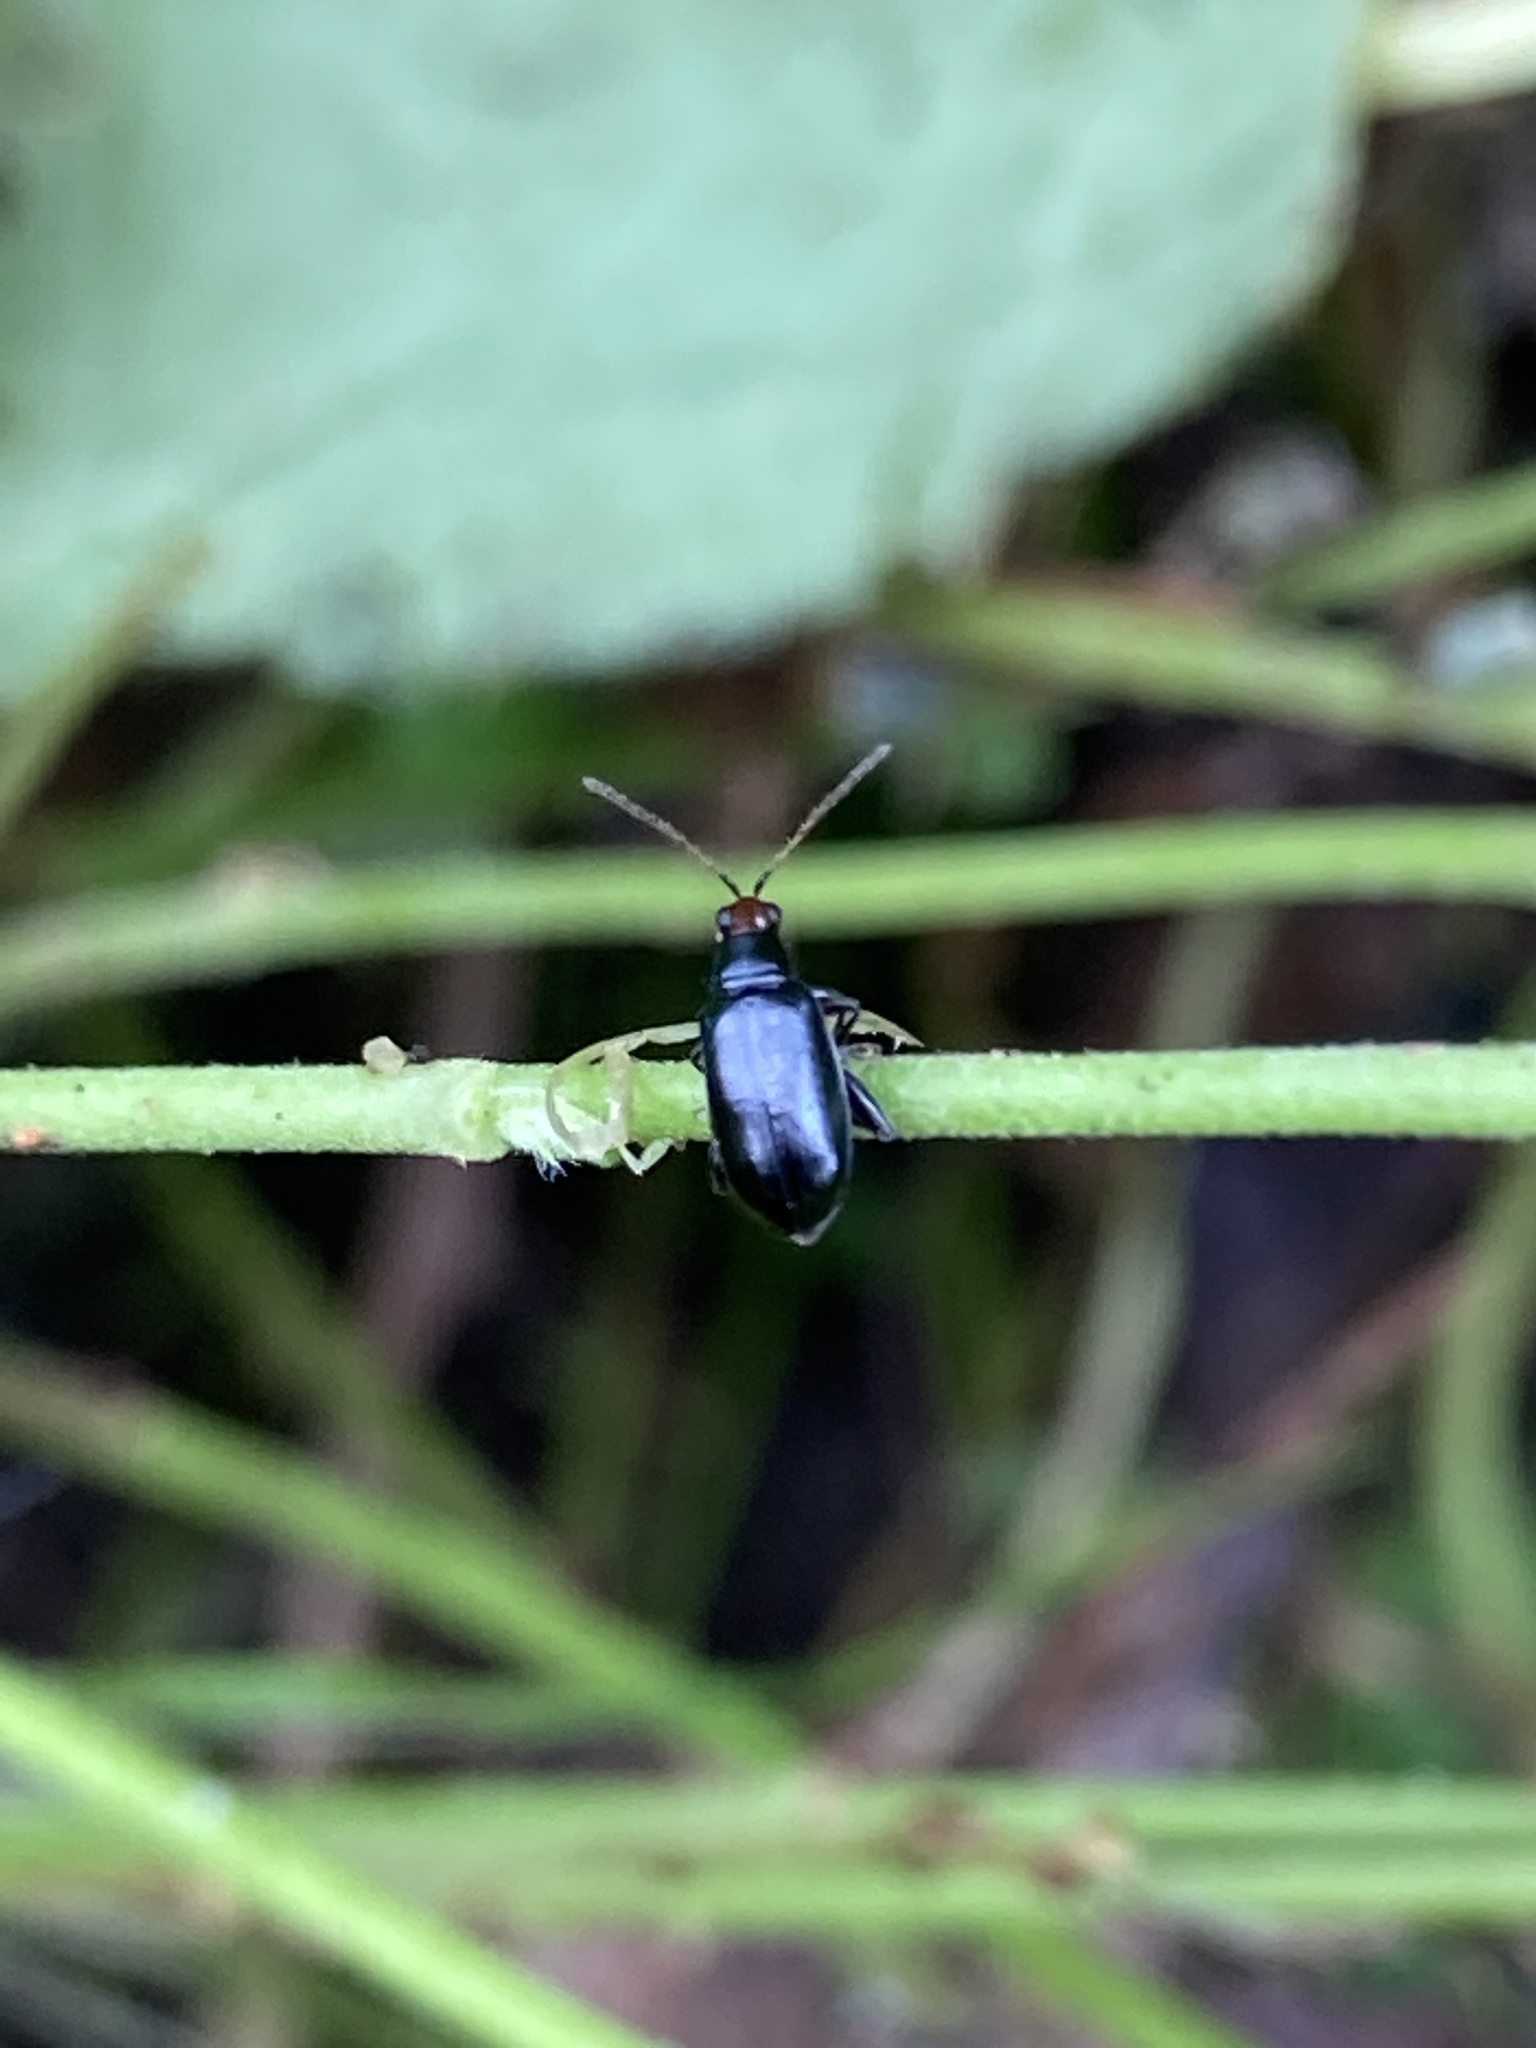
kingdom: Animalia
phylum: Arthropoda
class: Insecta
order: Coleoptera
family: Chrysomelidae
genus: Systena
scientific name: Systena frontalis
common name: Red-headed flea beetle
